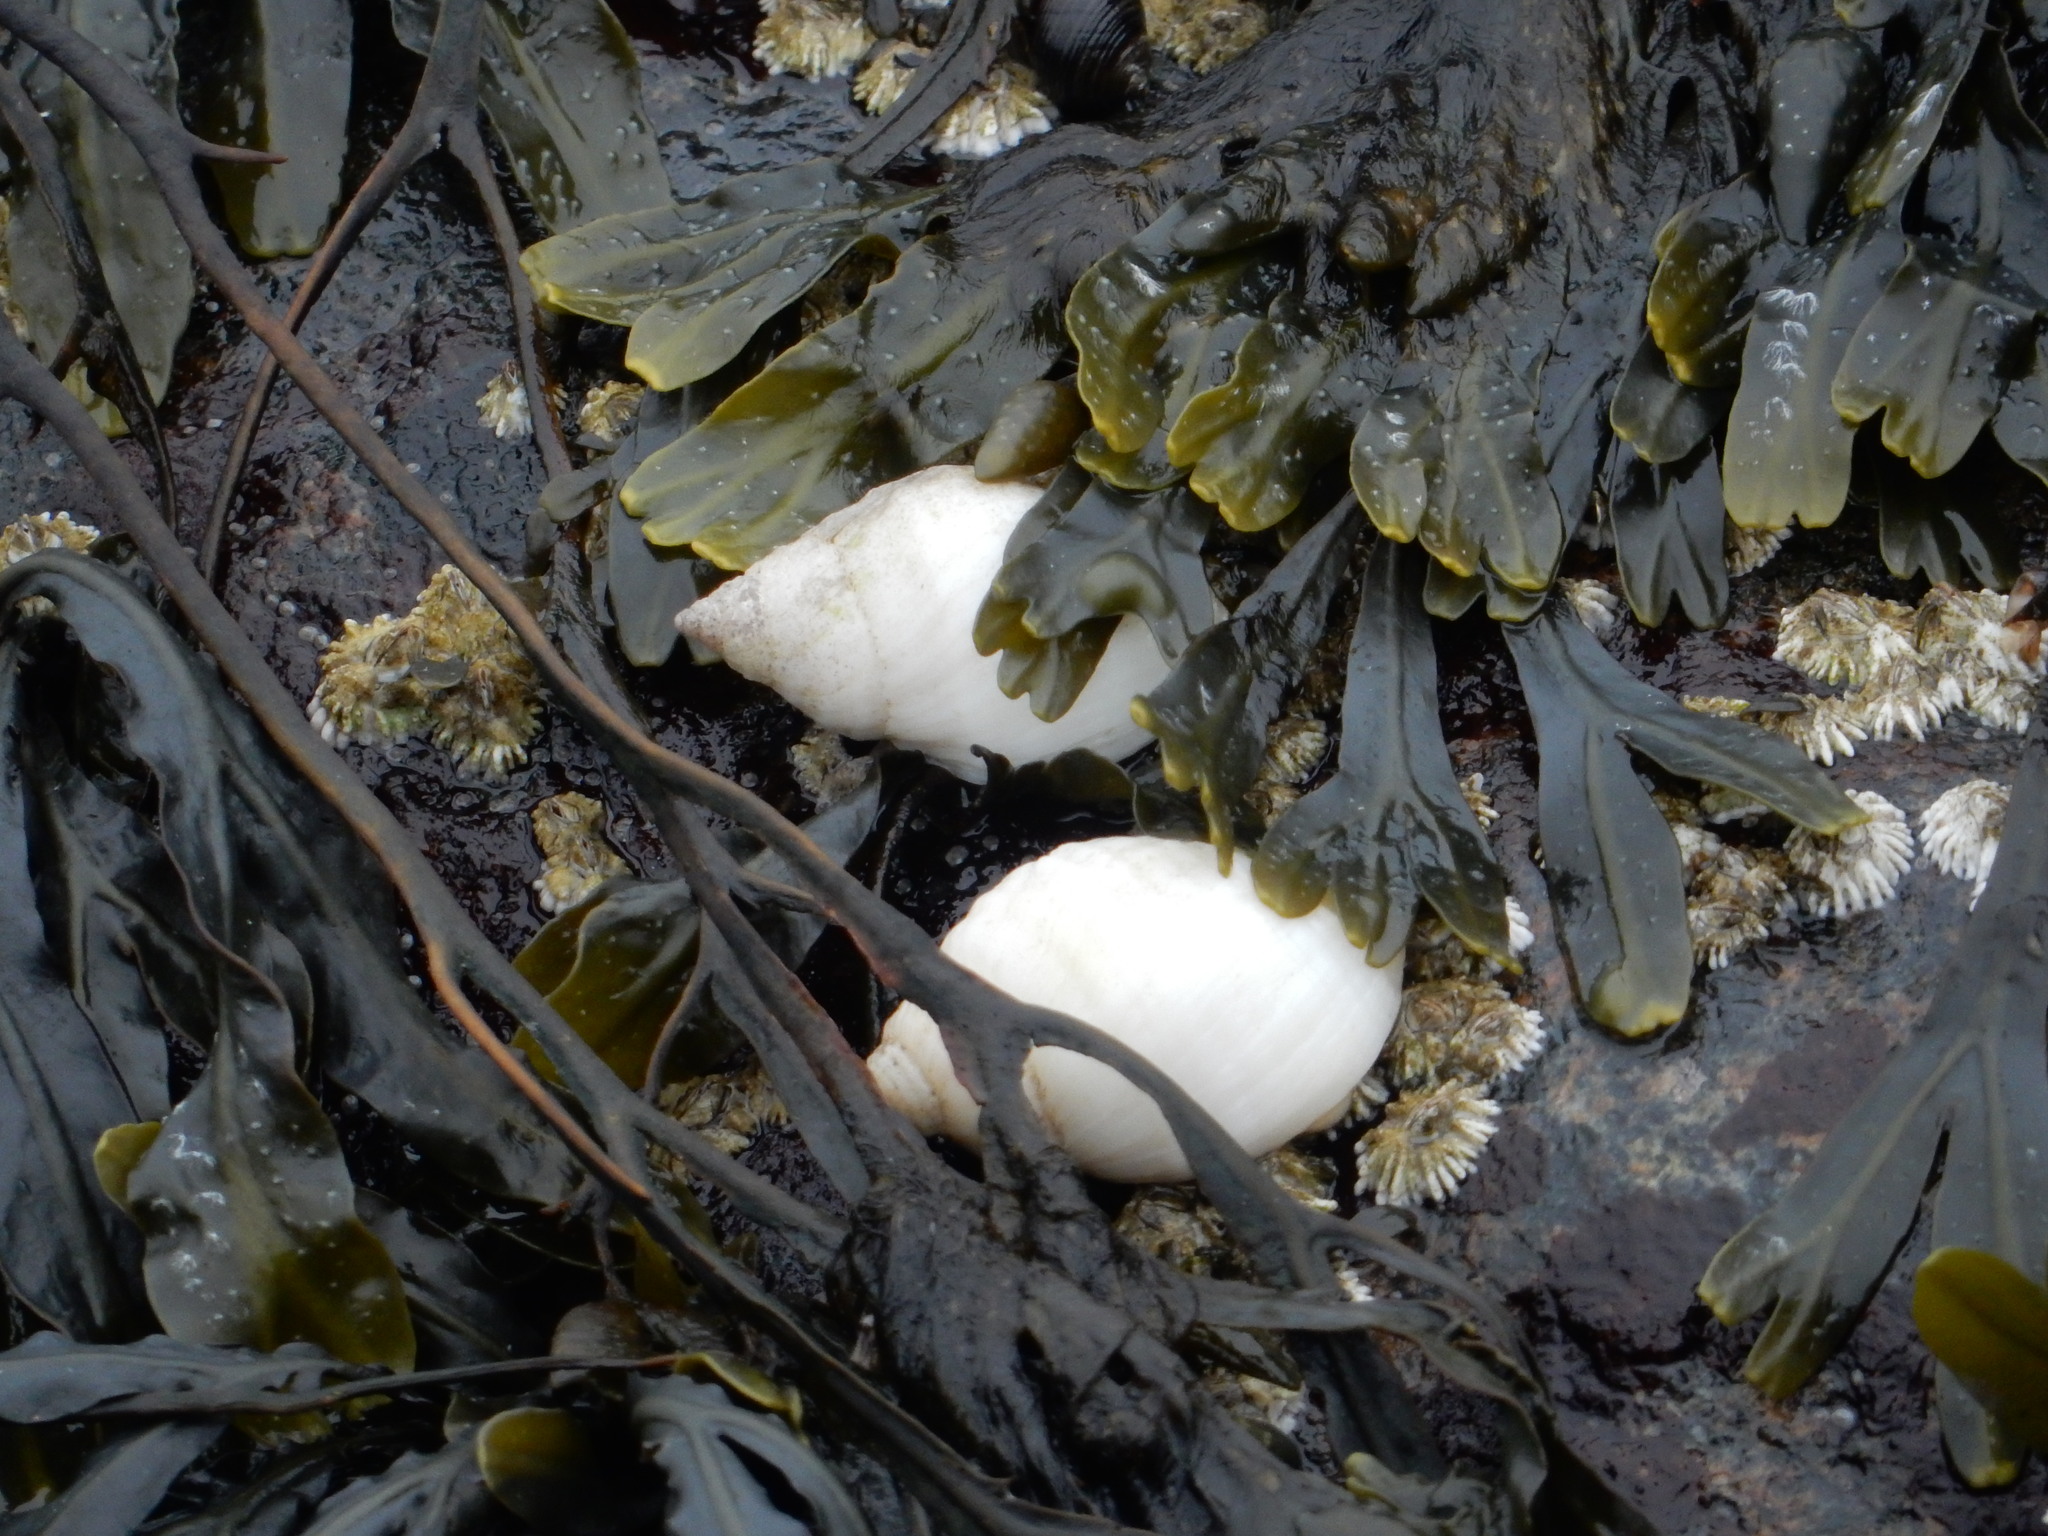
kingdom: Animalia
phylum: Mollusca
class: Gastropoda
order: Neogastropoda
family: Muricidae
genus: Nucella
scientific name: Nucella lapillus
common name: Dog whelk
